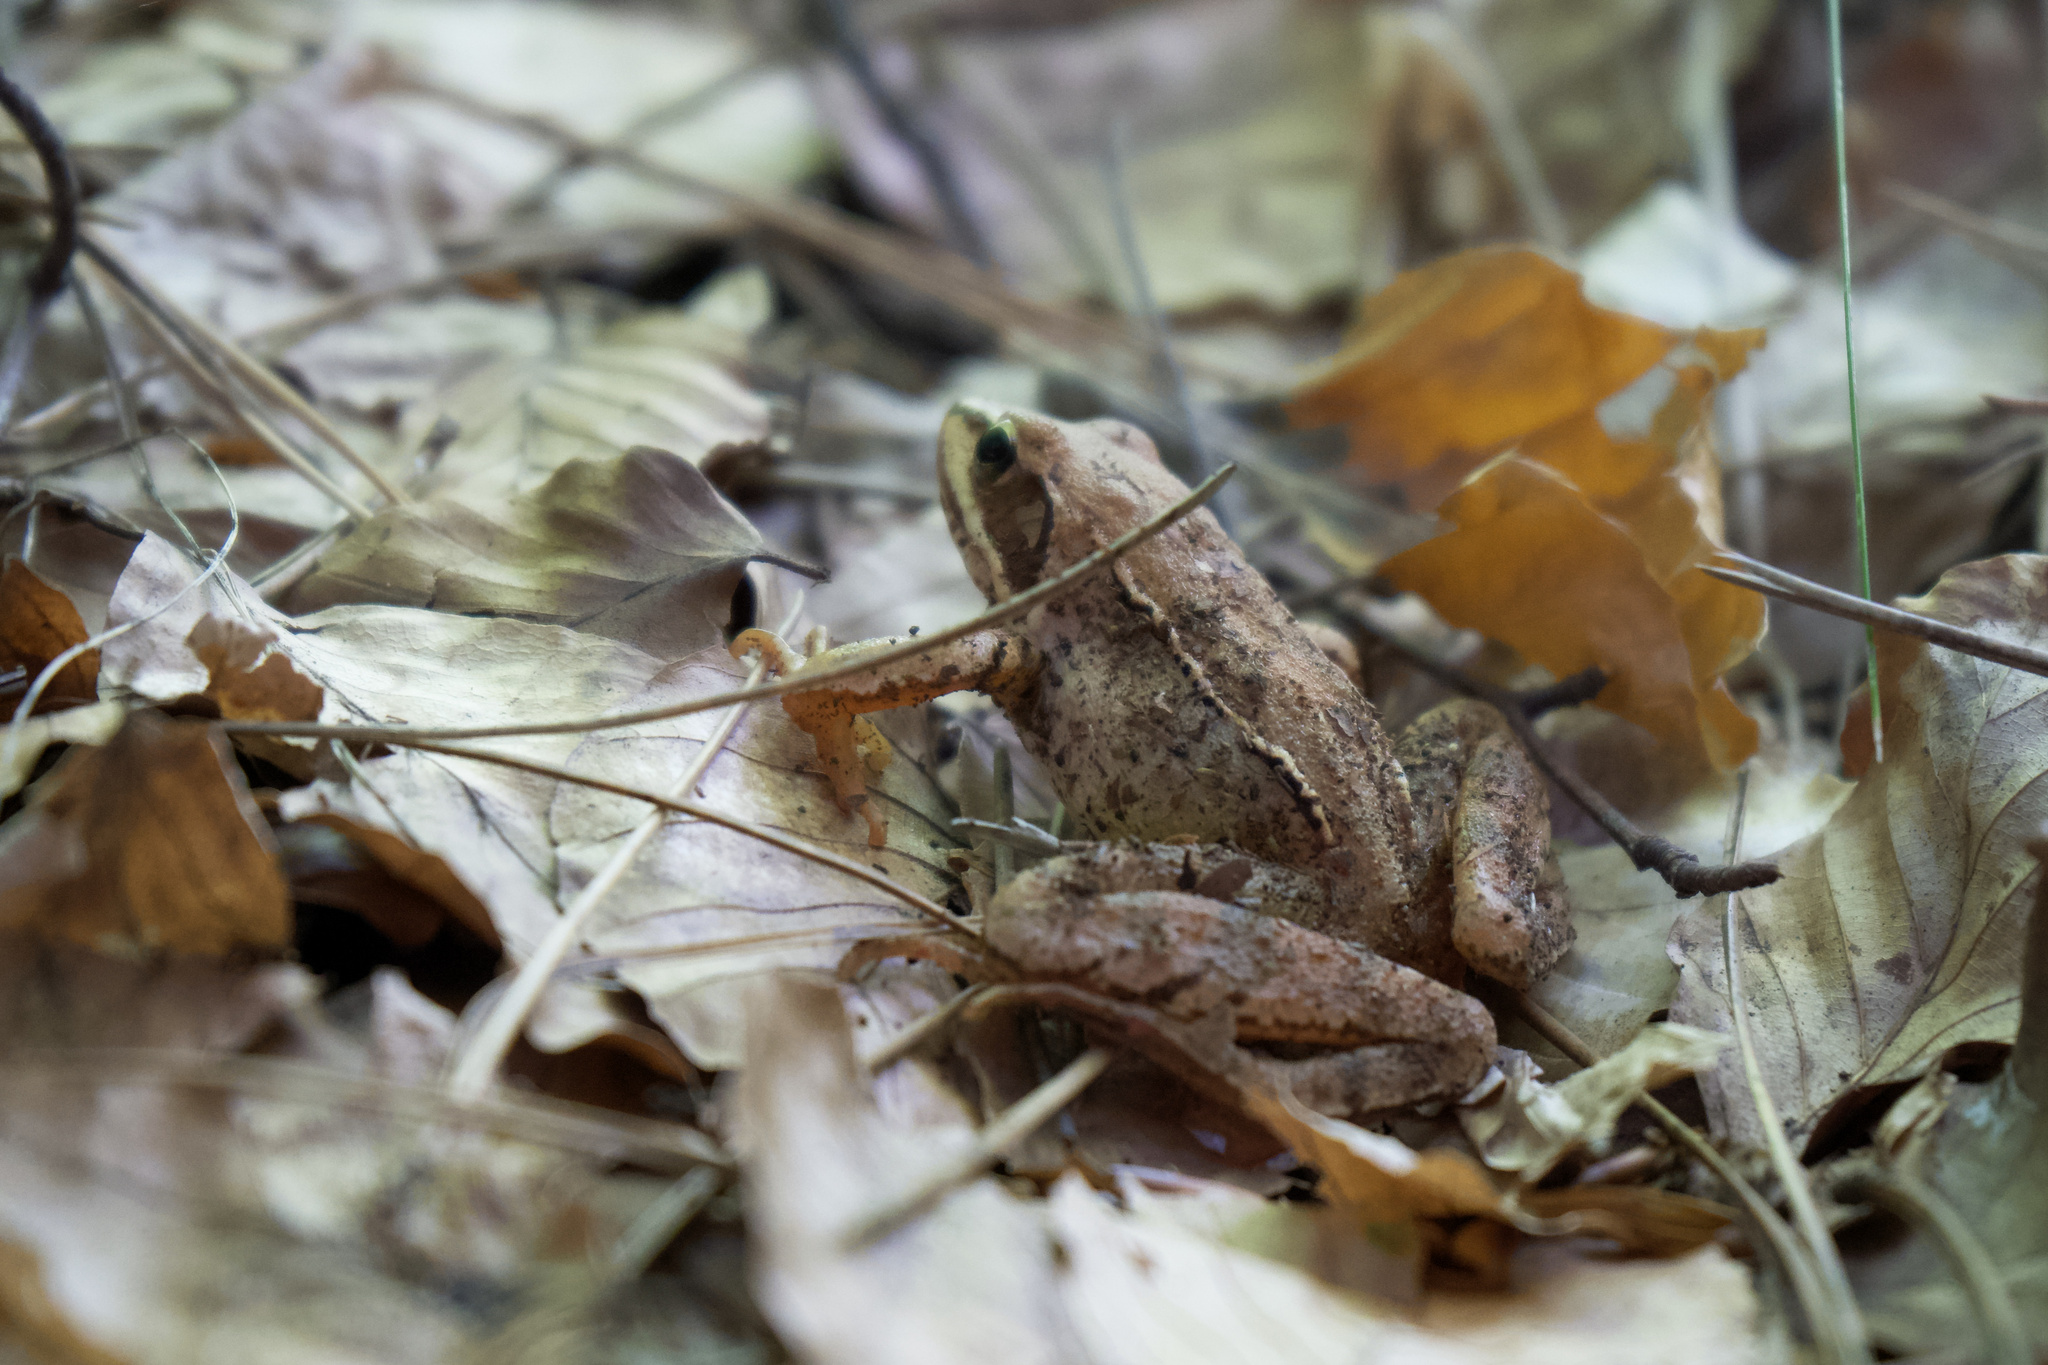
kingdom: Animalia
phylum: Chordata
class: Amphibia
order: Anura
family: Ranidae
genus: Rana
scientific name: Rana dalmatina
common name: Agile frog
